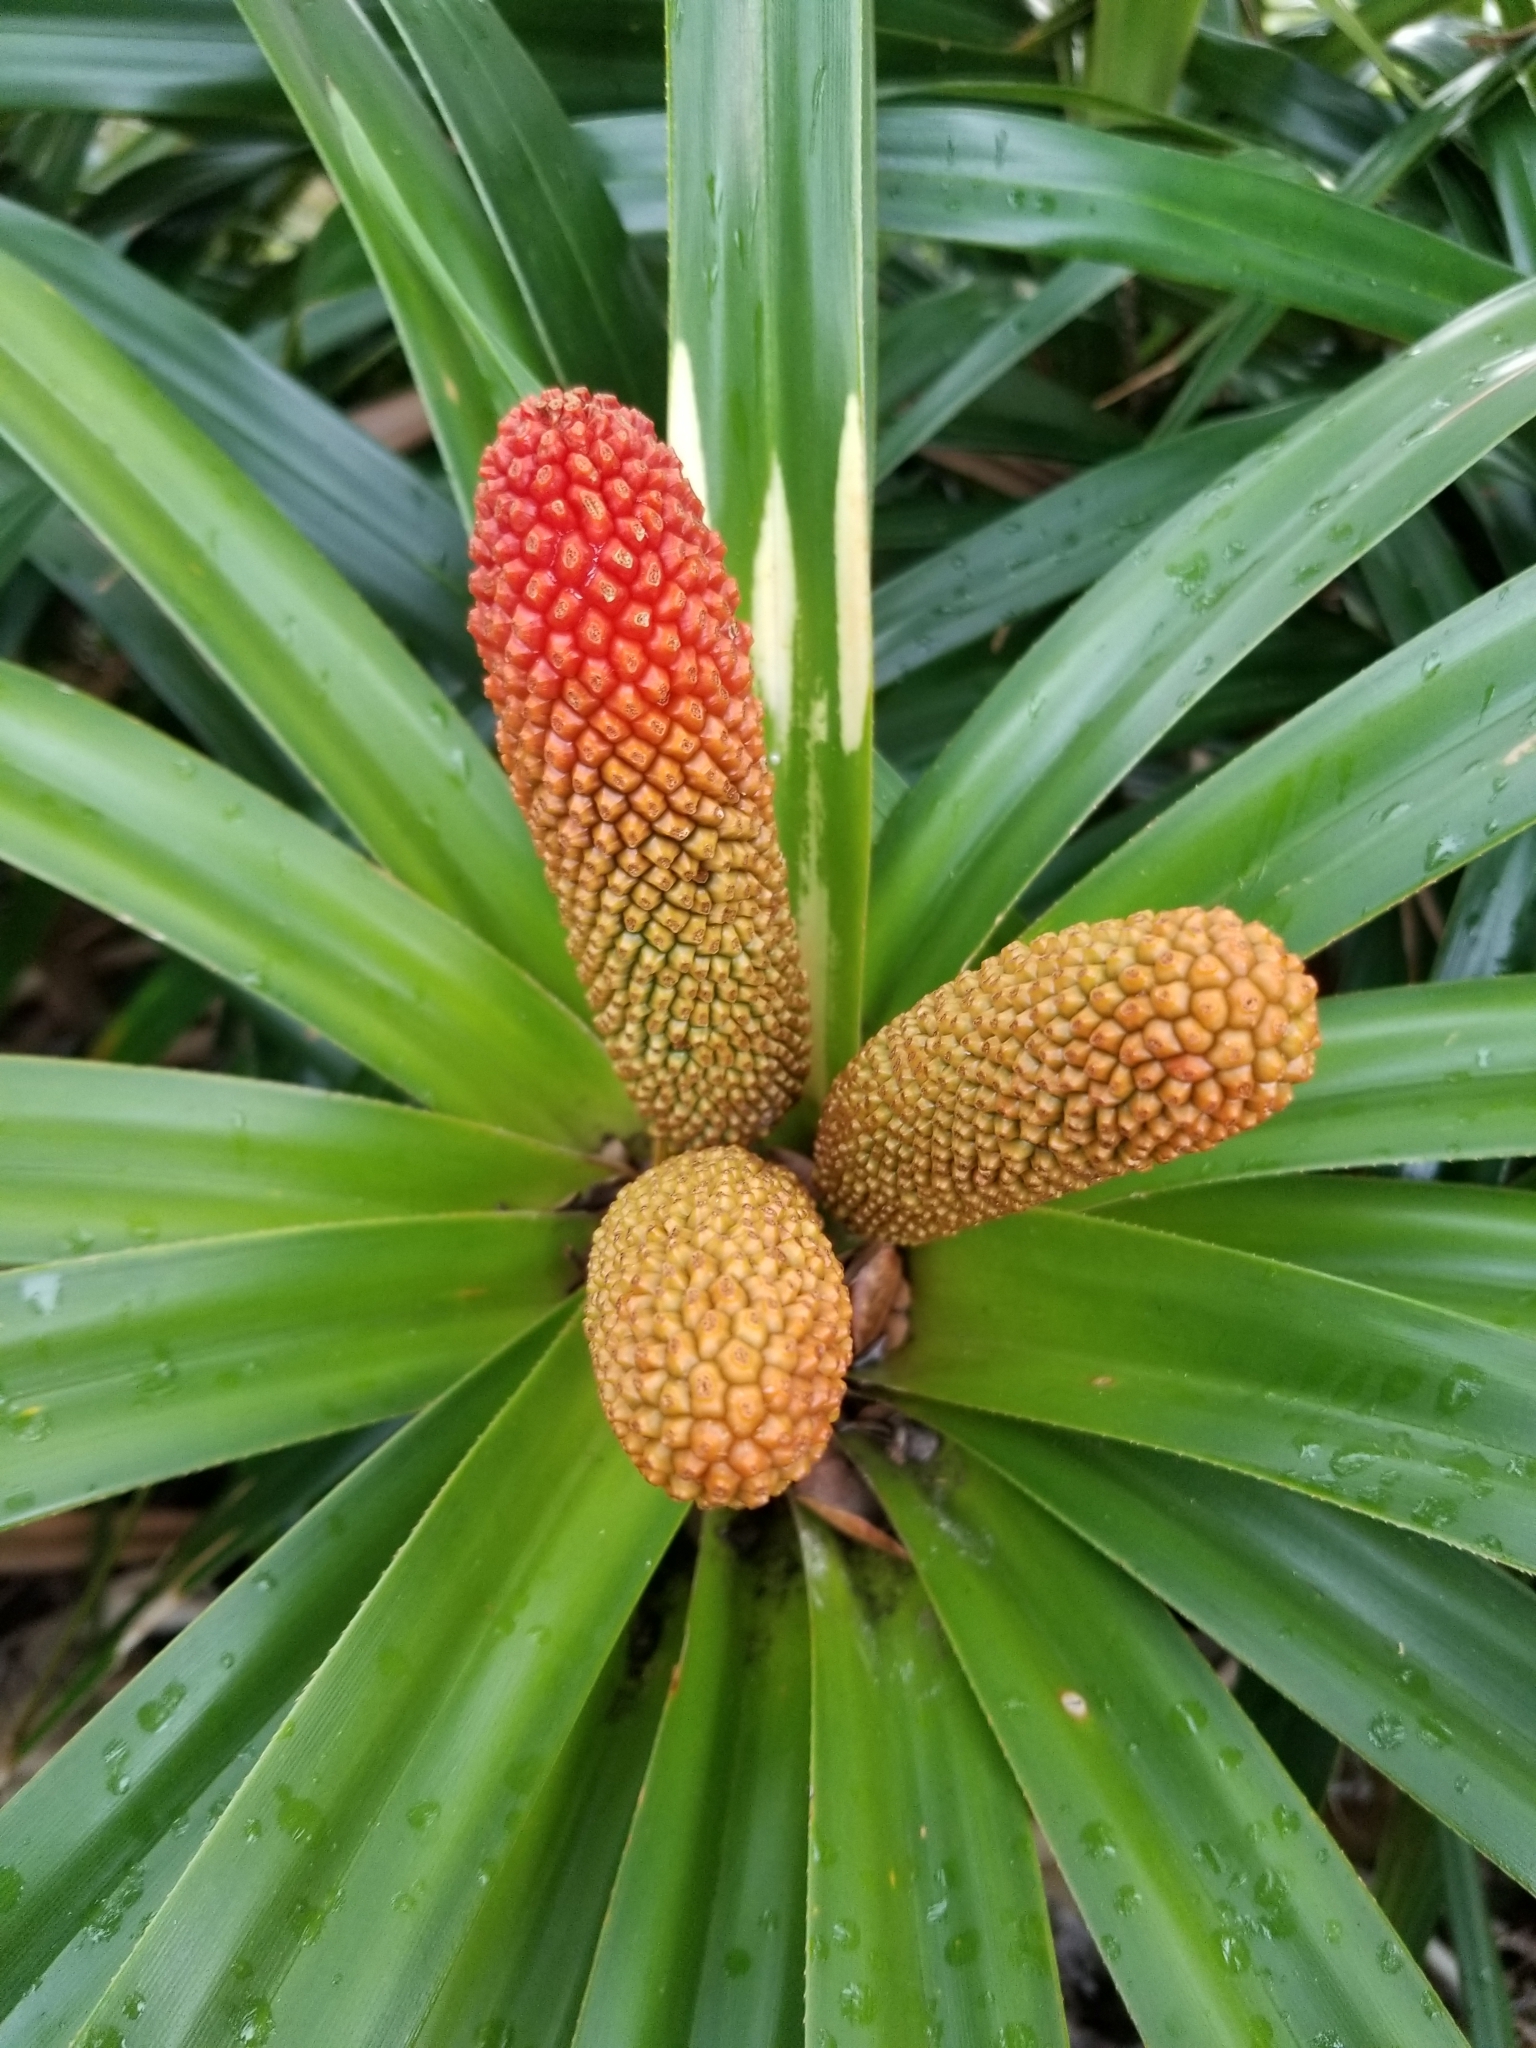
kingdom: Plantae
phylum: Tracheophyta
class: Liliopsida
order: Pandanales
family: Pandanaceae
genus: Freycinetia
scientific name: Freycinetia arborea
